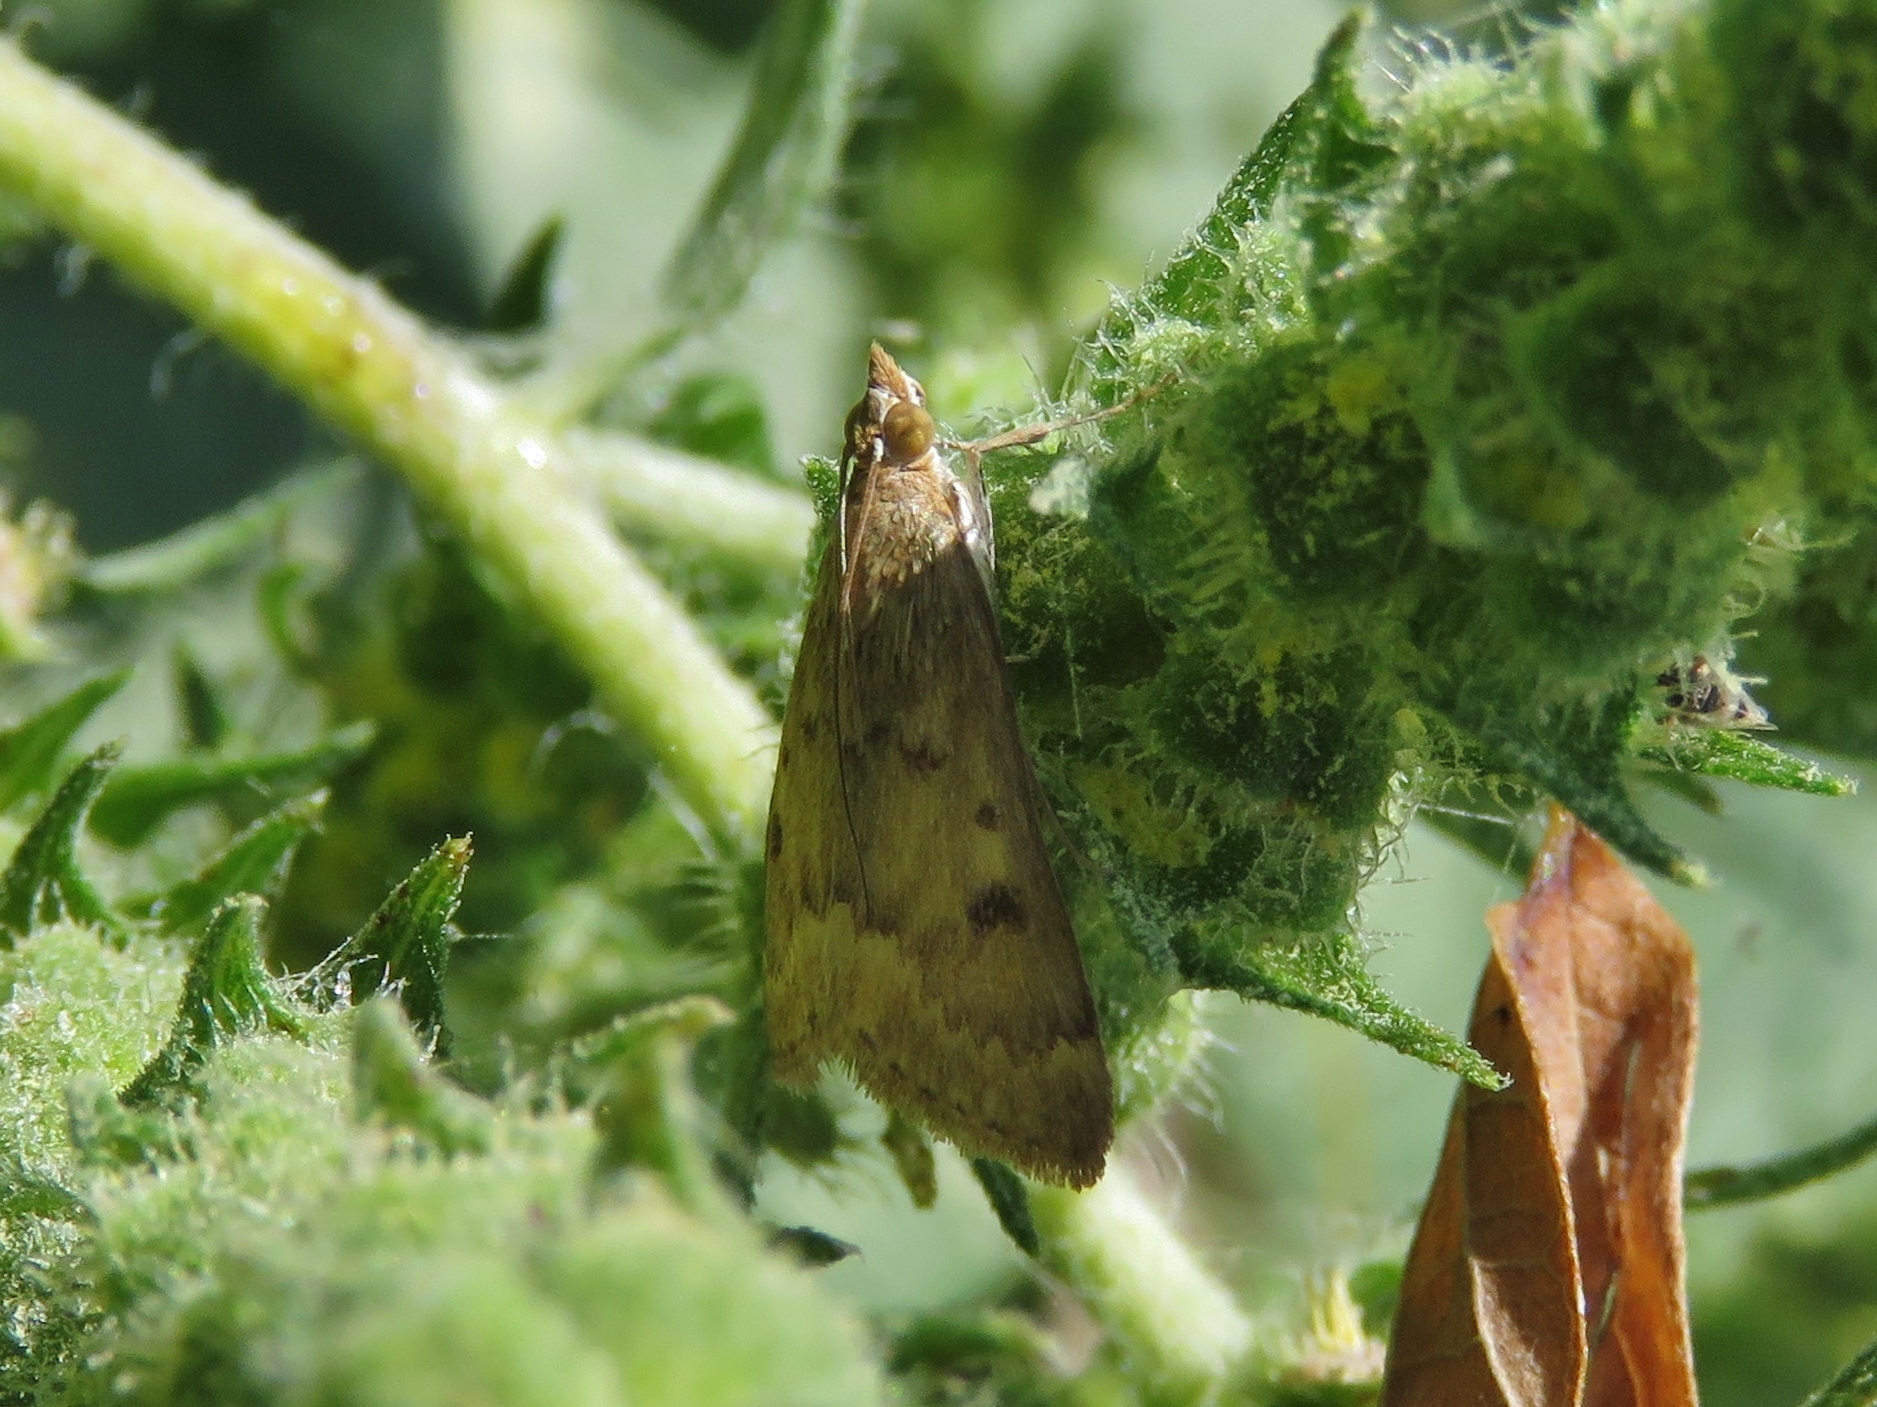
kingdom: Animalia
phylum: Arthropoda
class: Insecta
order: Lepidoptera
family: Crambidae
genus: Achyra
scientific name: Achyra rantalis
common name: Garden webworm
